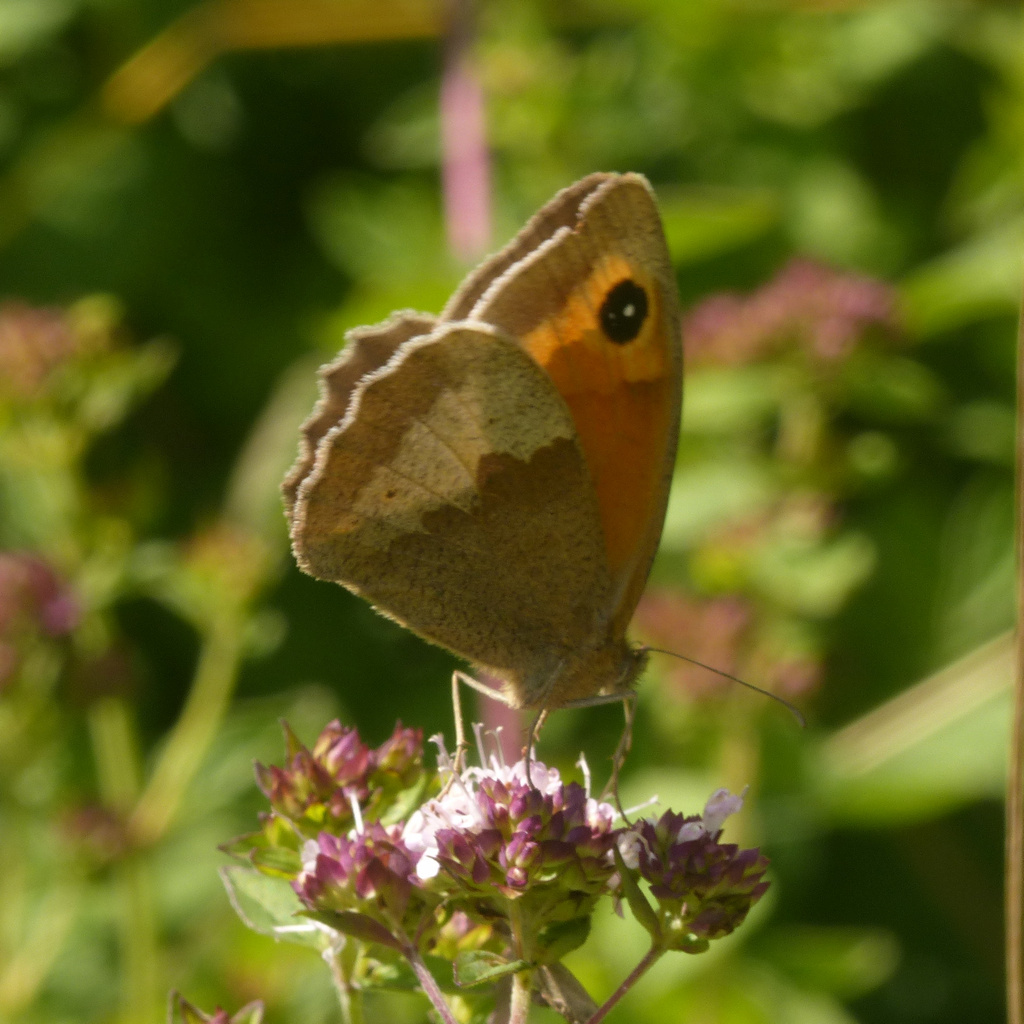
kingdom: Animalia
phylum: Arthropoda
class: Insecta
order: Lepidoptera
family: Nymphalidae
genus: Maniola
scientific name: Maniola jurtina
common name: Meadow brown
